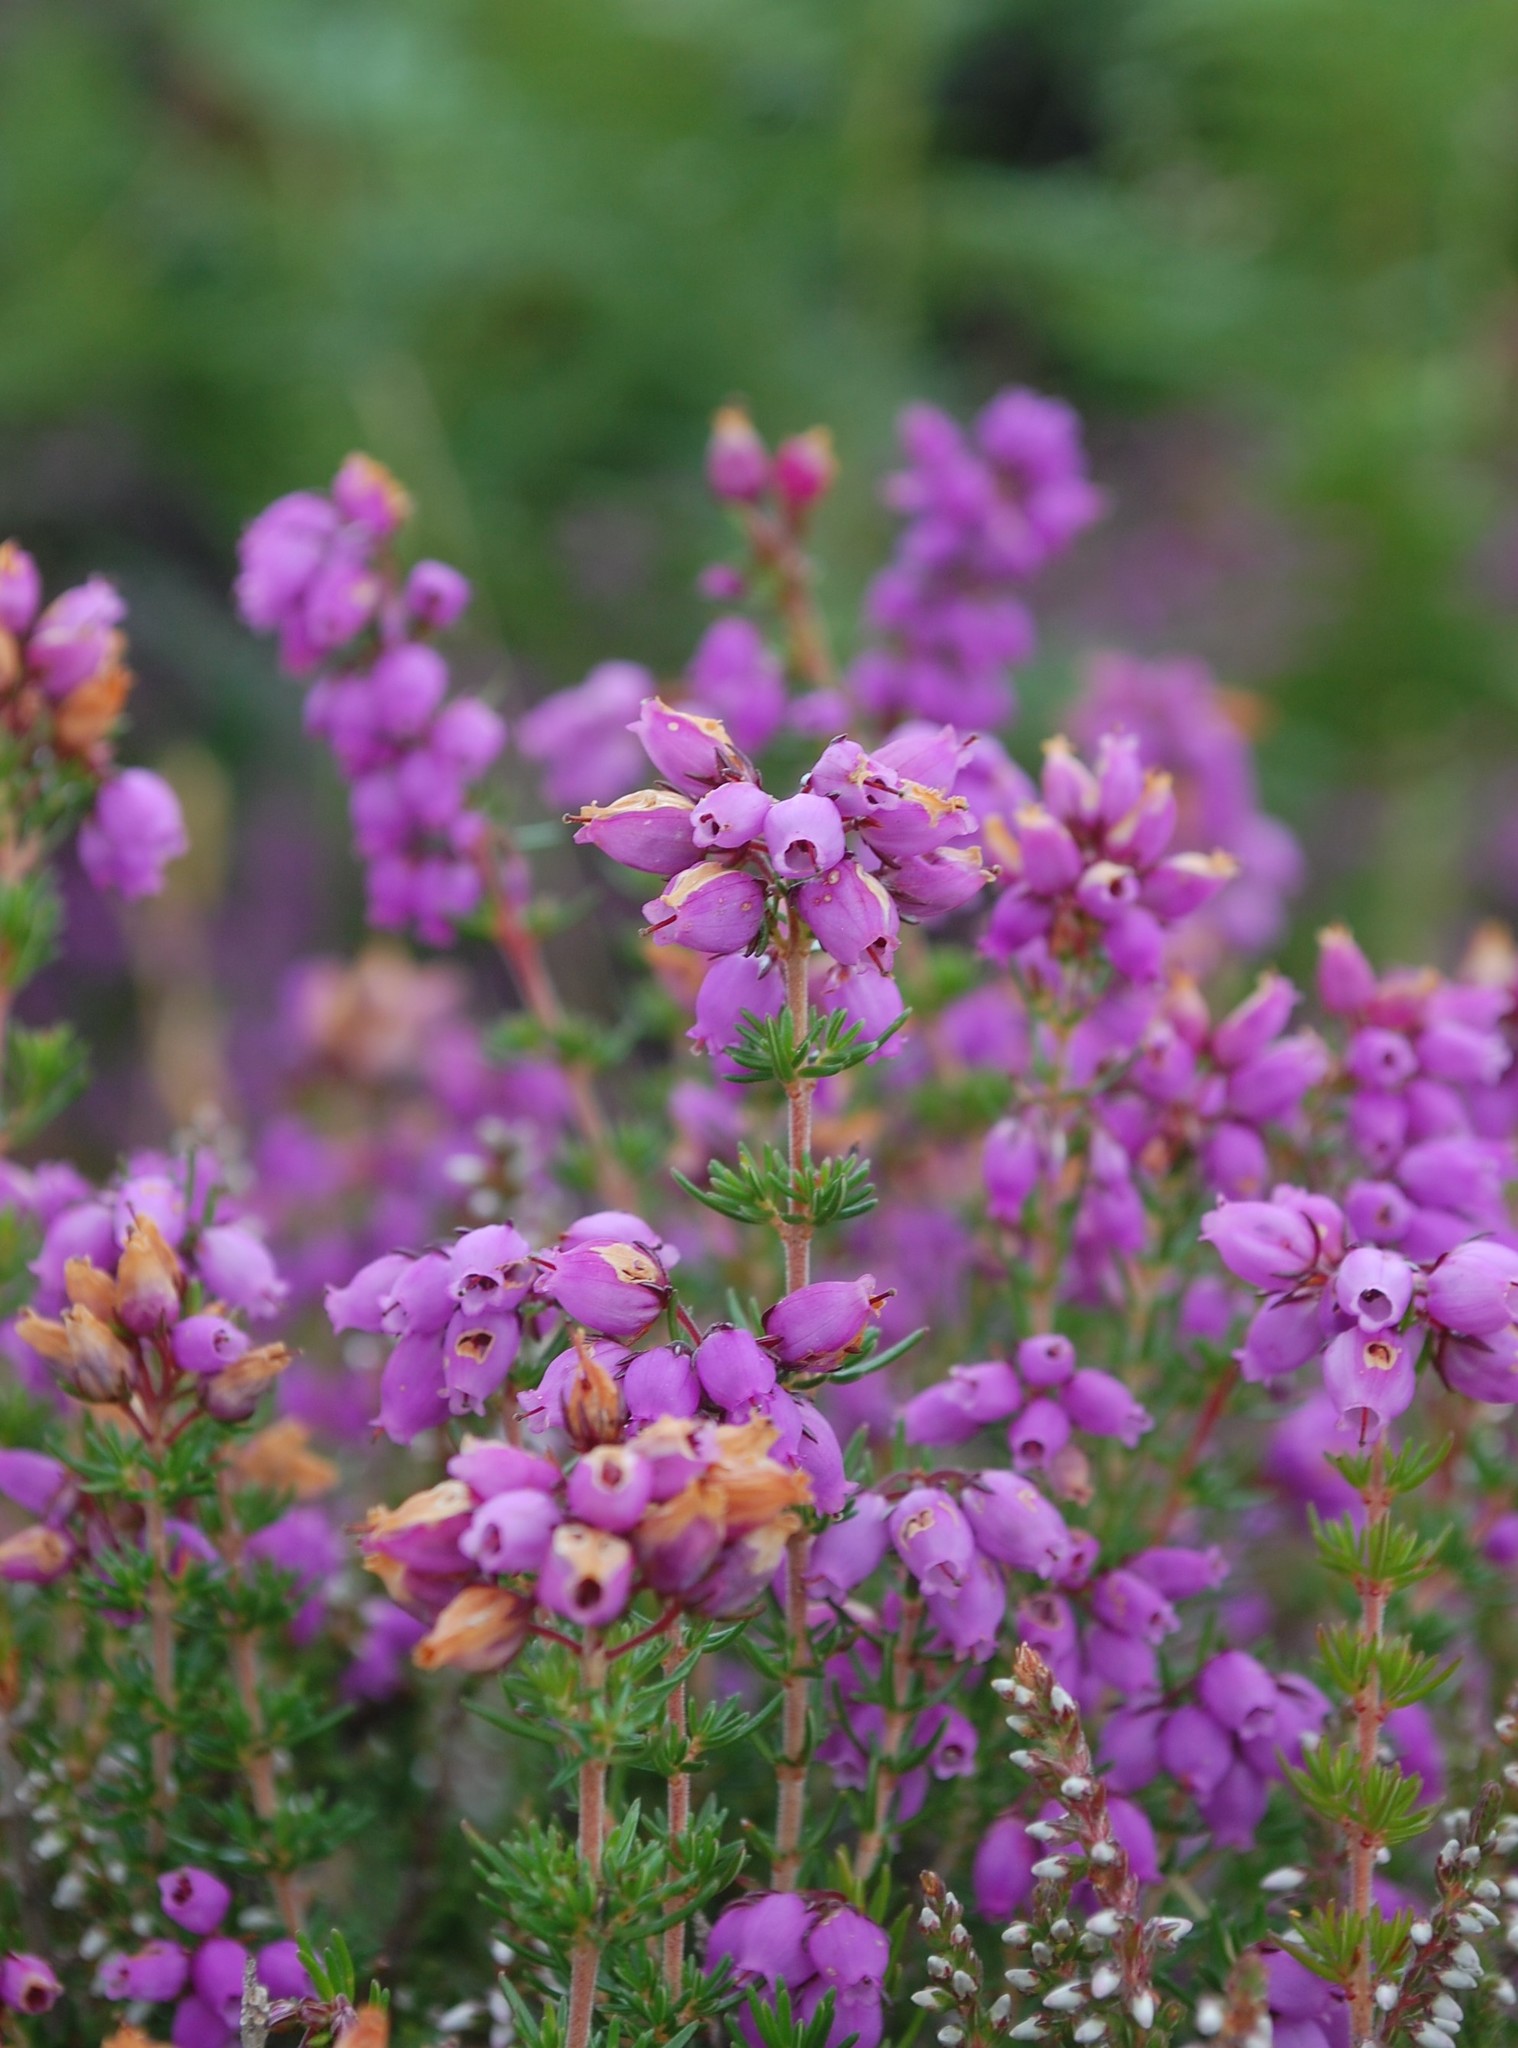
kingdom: Plantae
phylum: Tracheophyta
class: Magnoliopsida
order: Ericales
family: Ericaceae
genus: Erica
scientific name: Erica cinerea
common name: Bell heather
